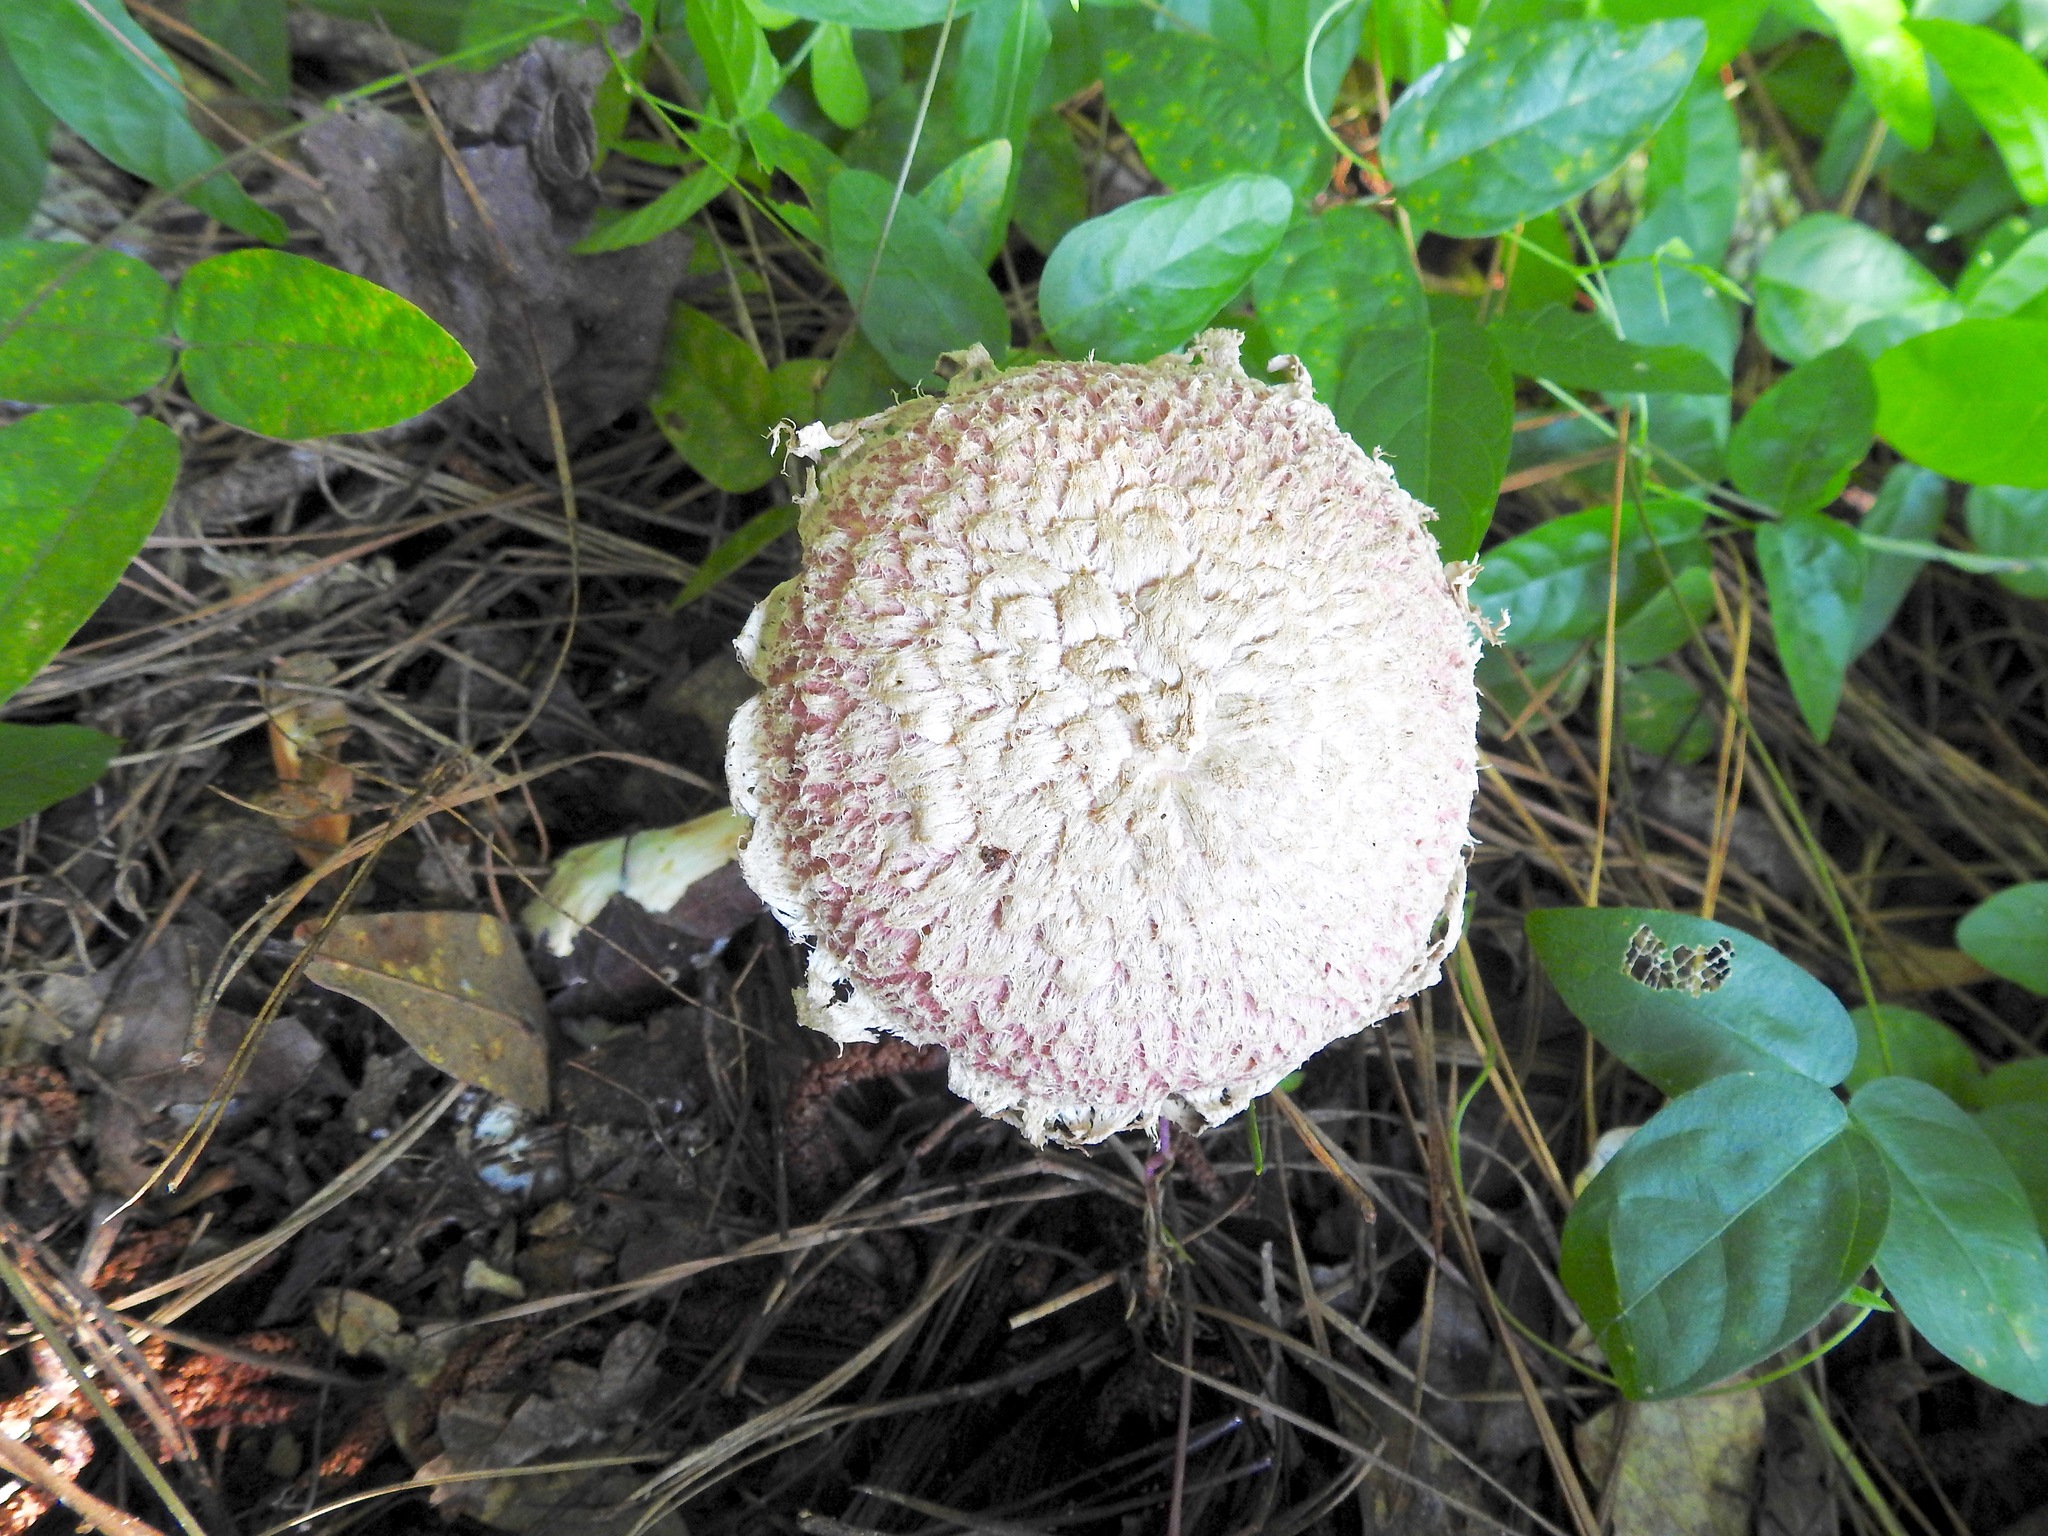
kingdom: Fungi
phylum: Basidiomycota
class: Agaricomycetes
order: Boletales
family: Boletaceae
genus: Boletellus
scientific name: Boletellus ananas
